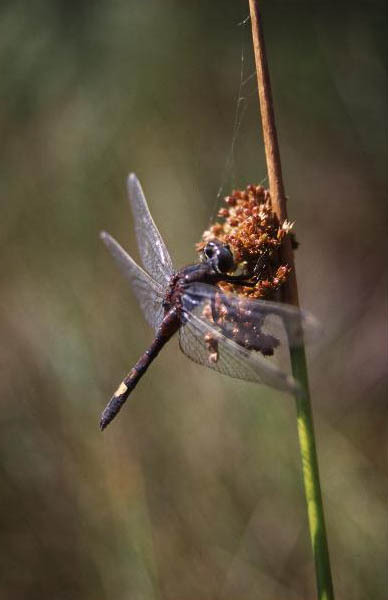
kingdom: Animalia
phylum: Arthropoda
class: Insecta
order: Odonata
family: Libellulidae
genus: Leucorrhinia
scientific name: Leucorrhinia pectoralis
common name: Yellow-spotted whiteface
